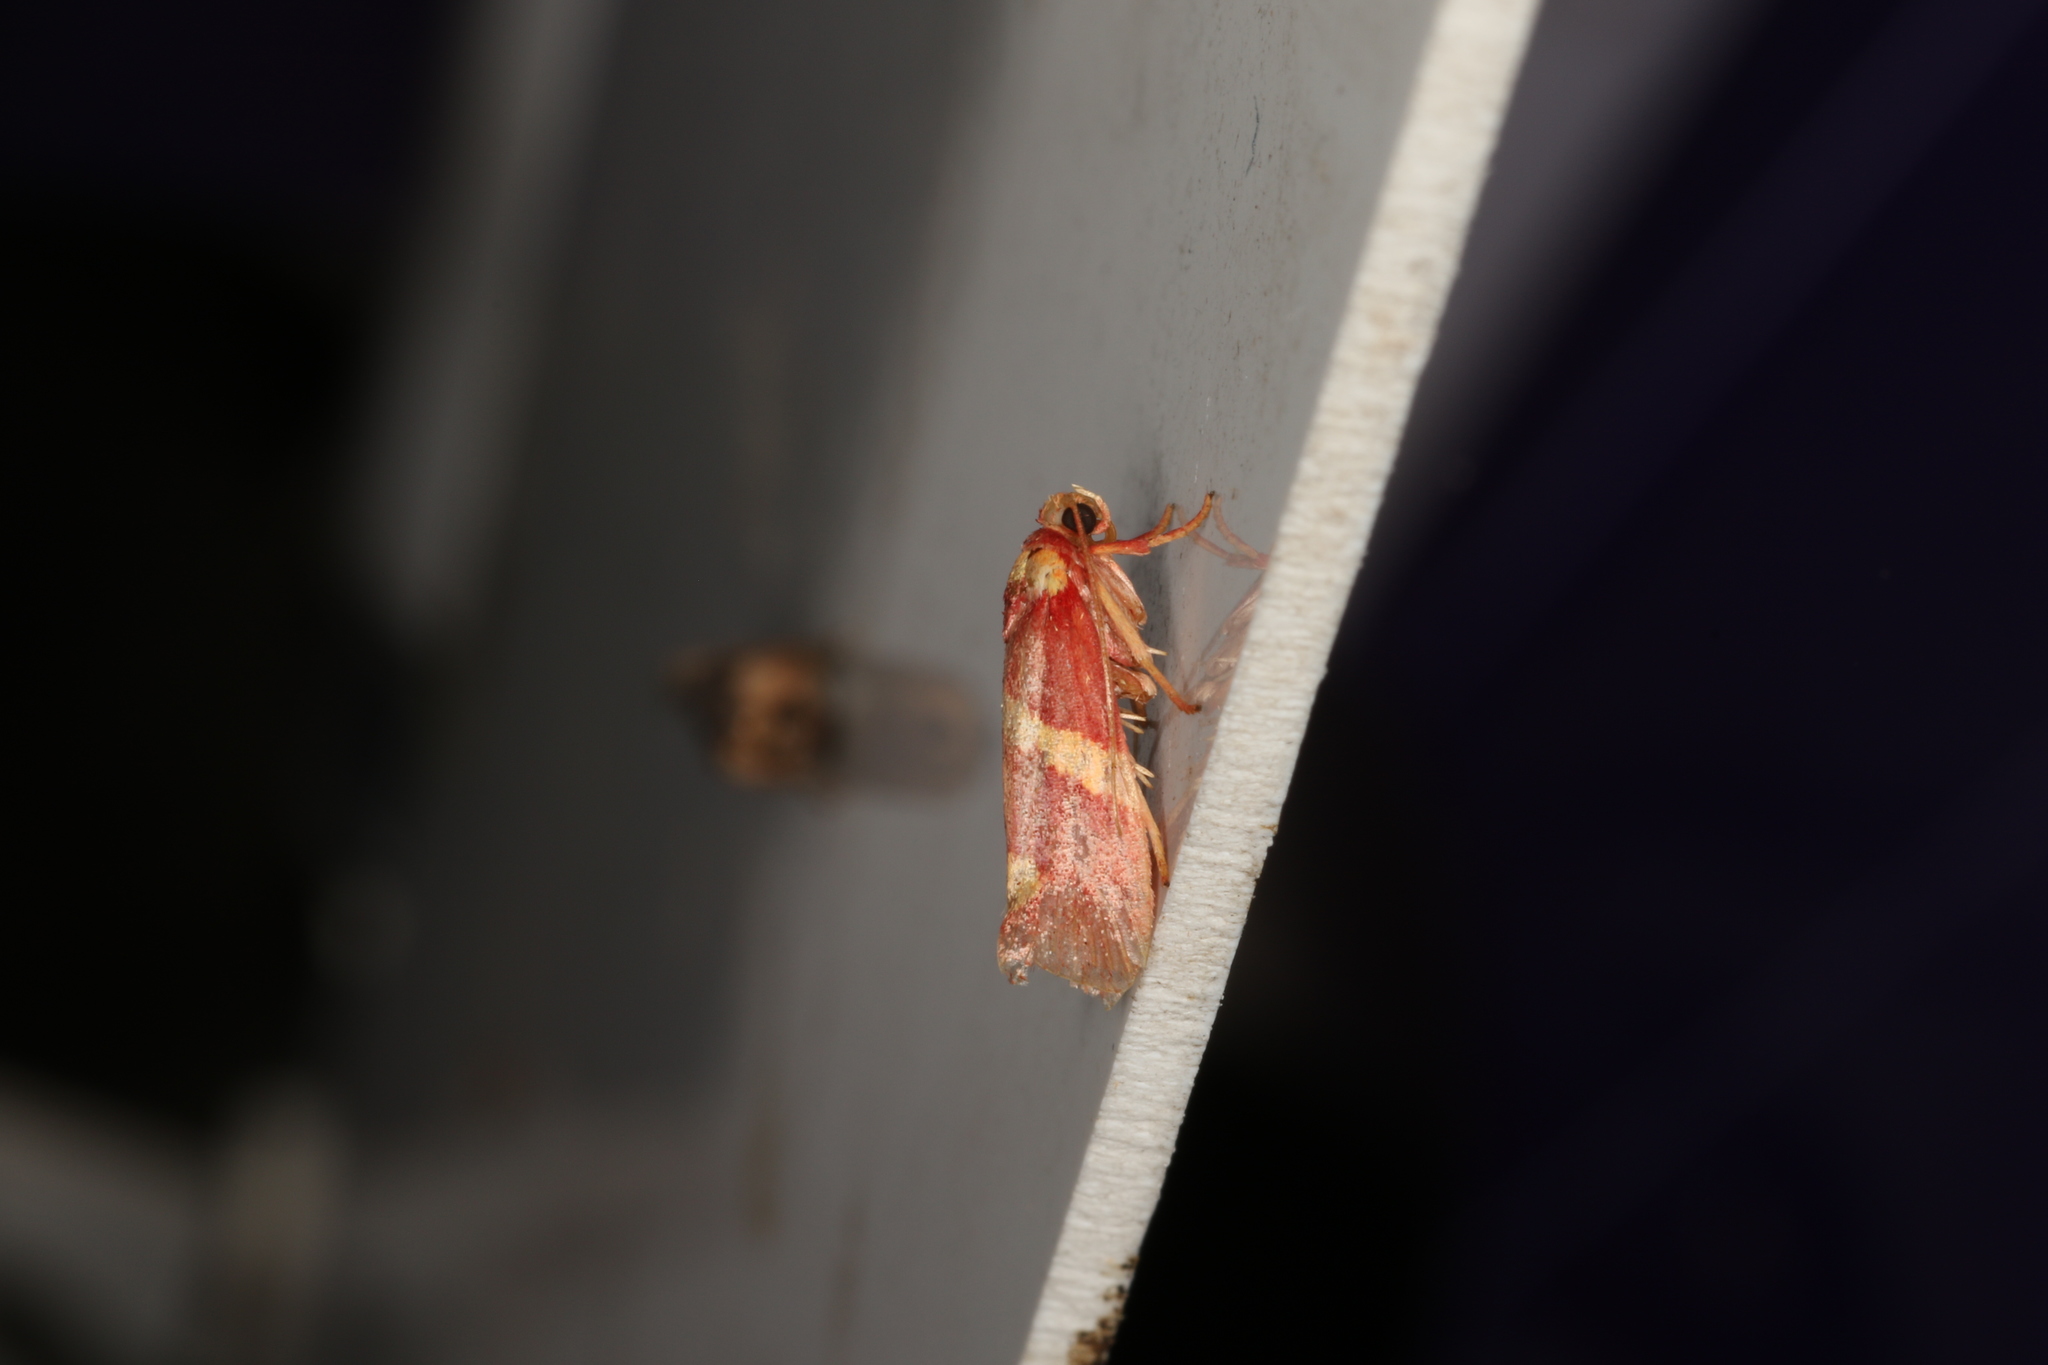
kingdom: Animalia
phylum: Arthropoda
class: Insecta
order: Lepidoptera
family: Lacturidae
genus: Anticrates
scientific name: Anticrates metreta
